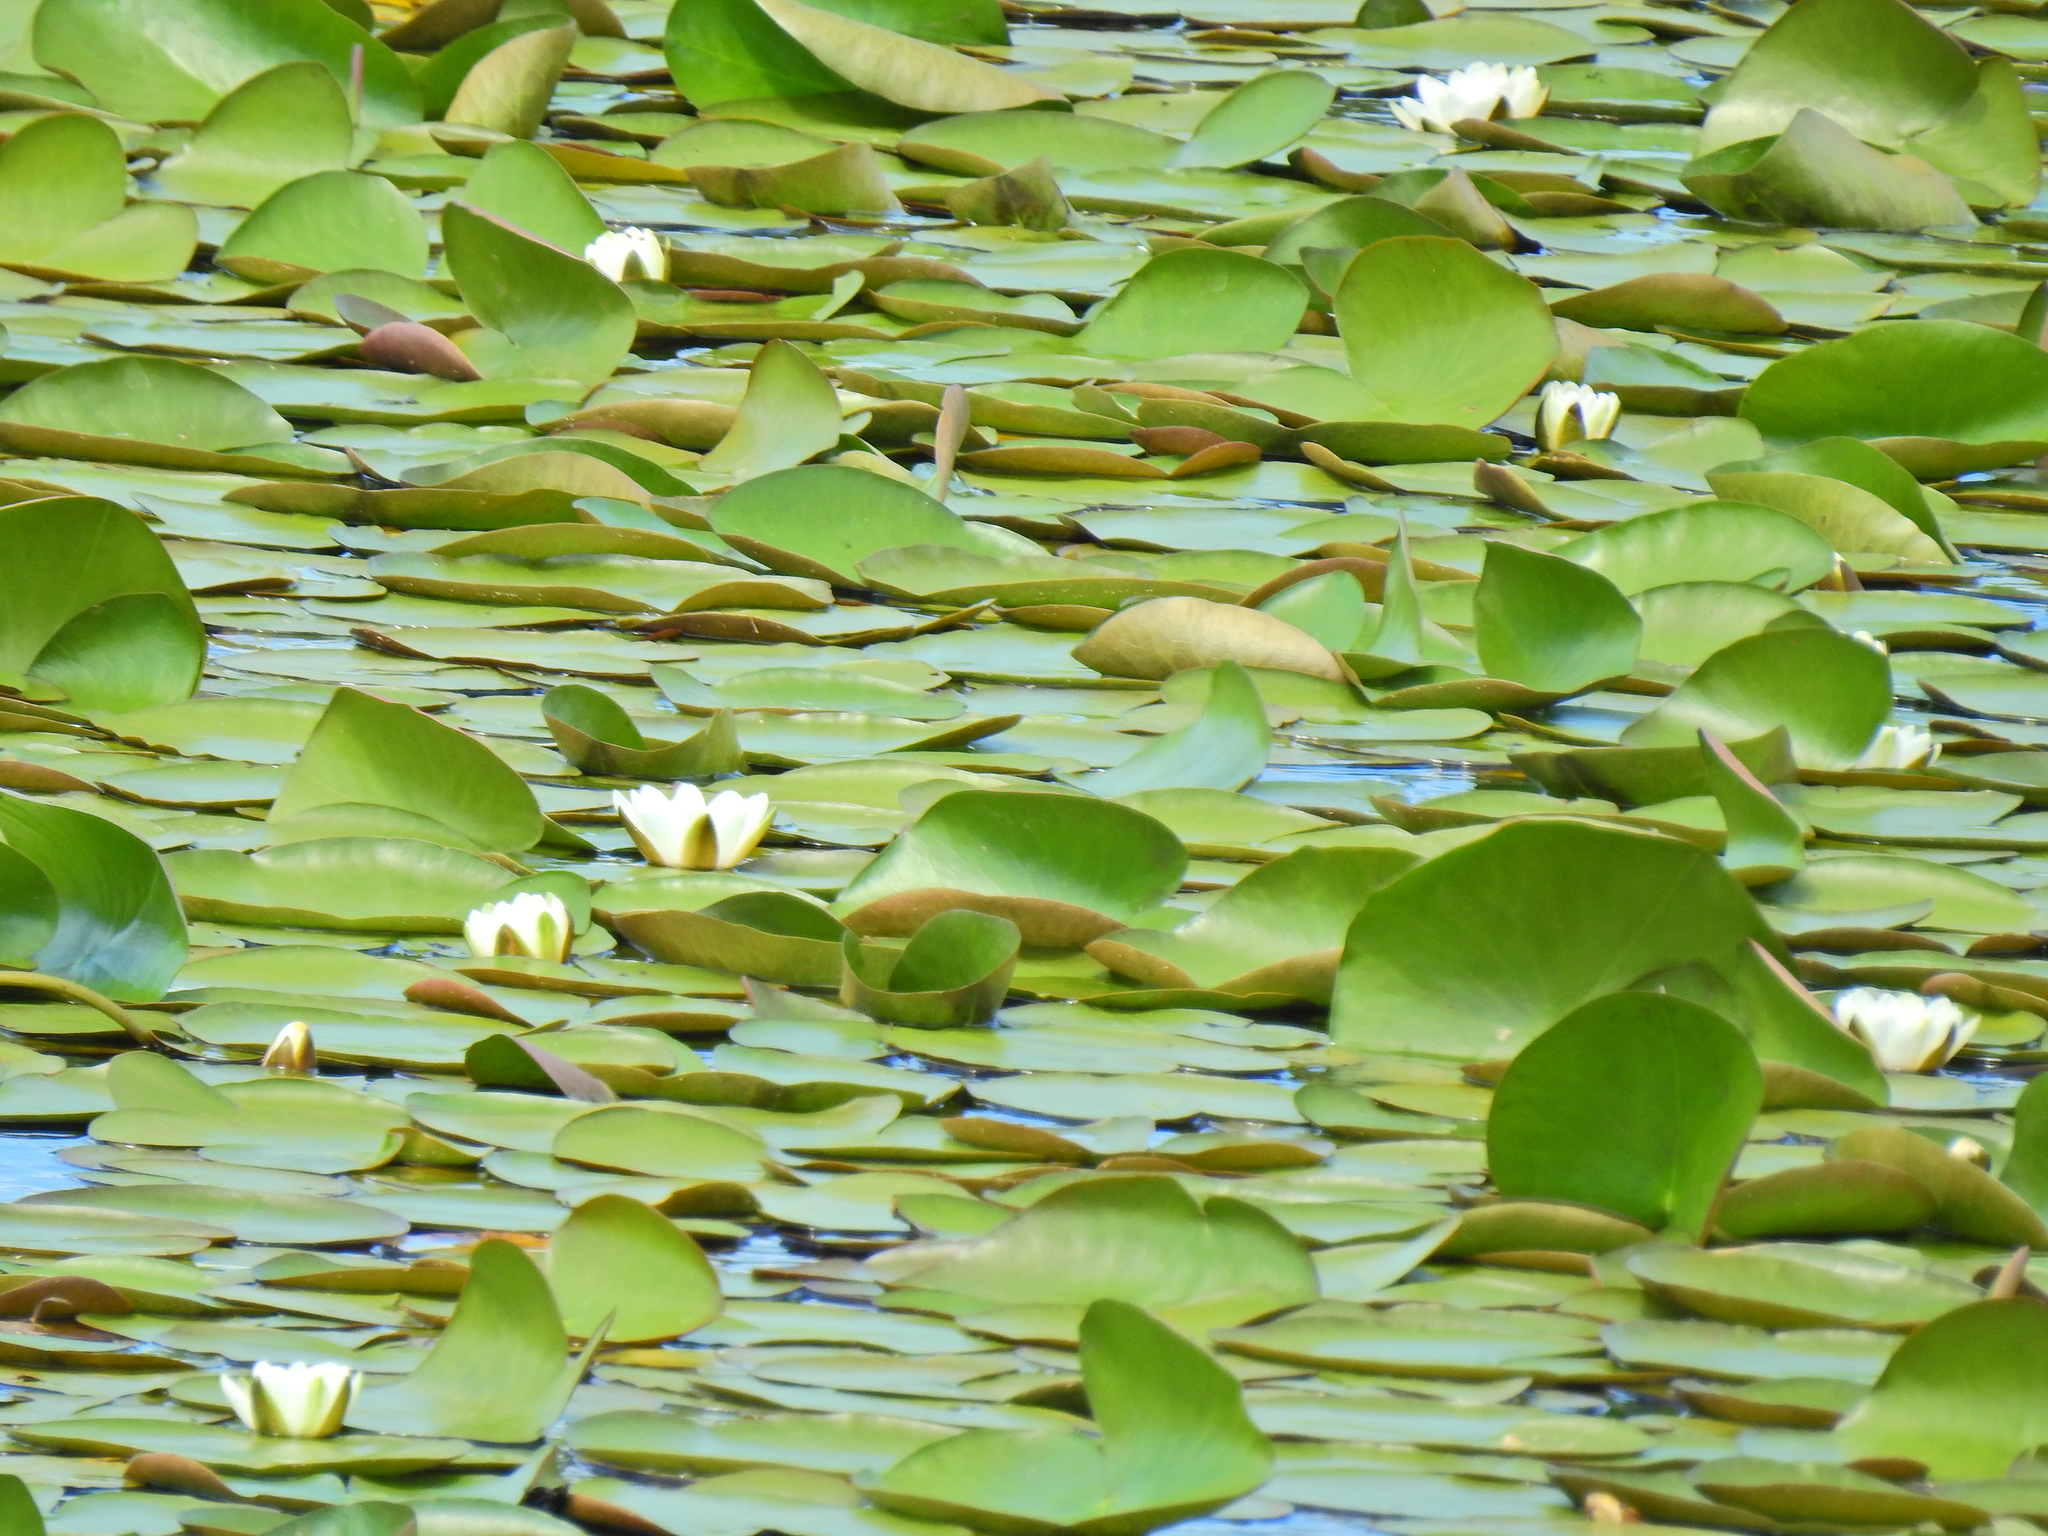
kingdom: Plantae
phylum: Tracheophyta
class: Magnoliopsida
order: Nymphaeales
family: Nymphaeaceae
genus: Nymphaea
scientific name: Nymphaea alba
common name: White water-lily
